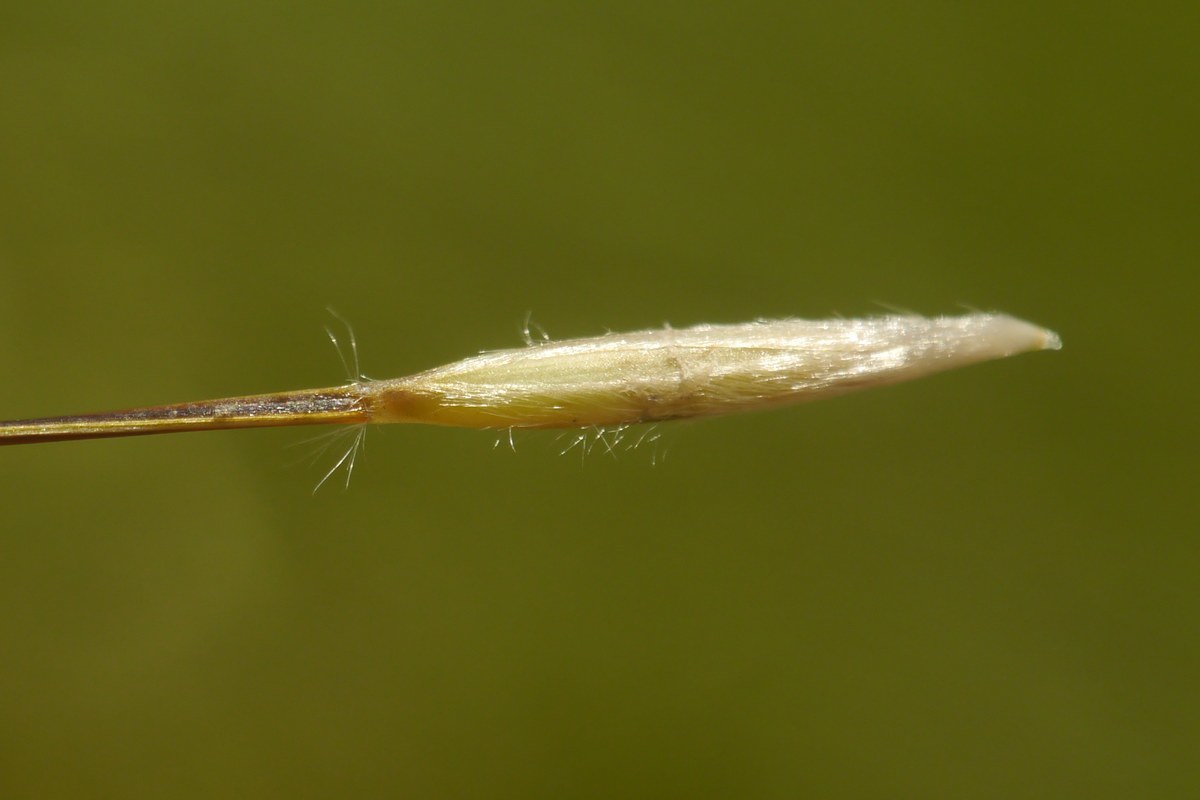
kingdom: Plantae
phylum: Tracheophyta
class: Liliopsida
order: Poales
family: Poaceae
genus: Stipa
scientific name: Stipa lessingiana
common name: Needle grass
